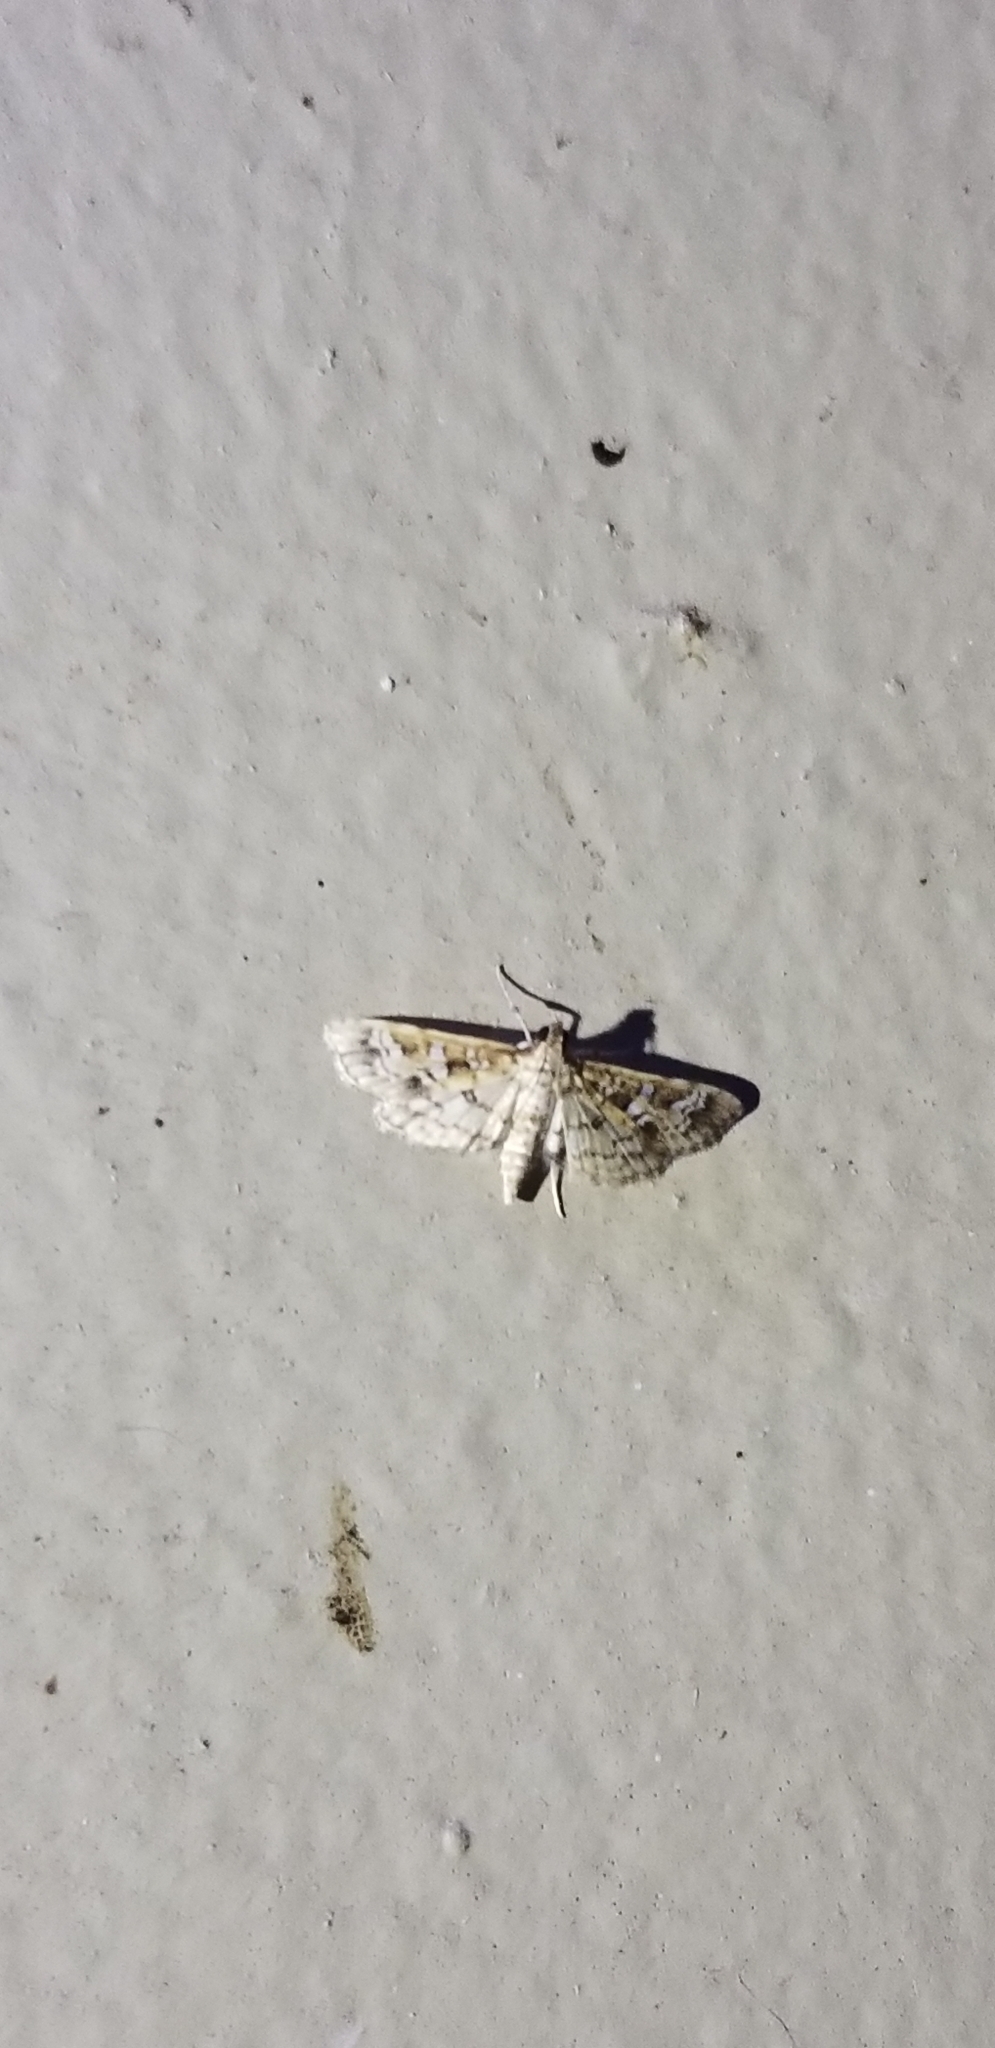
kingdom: Animalia
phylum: Arthropoda
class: Insecta
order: Lepidoptera
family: Crambidae
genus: Samea
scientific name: Samea multiplicalis
